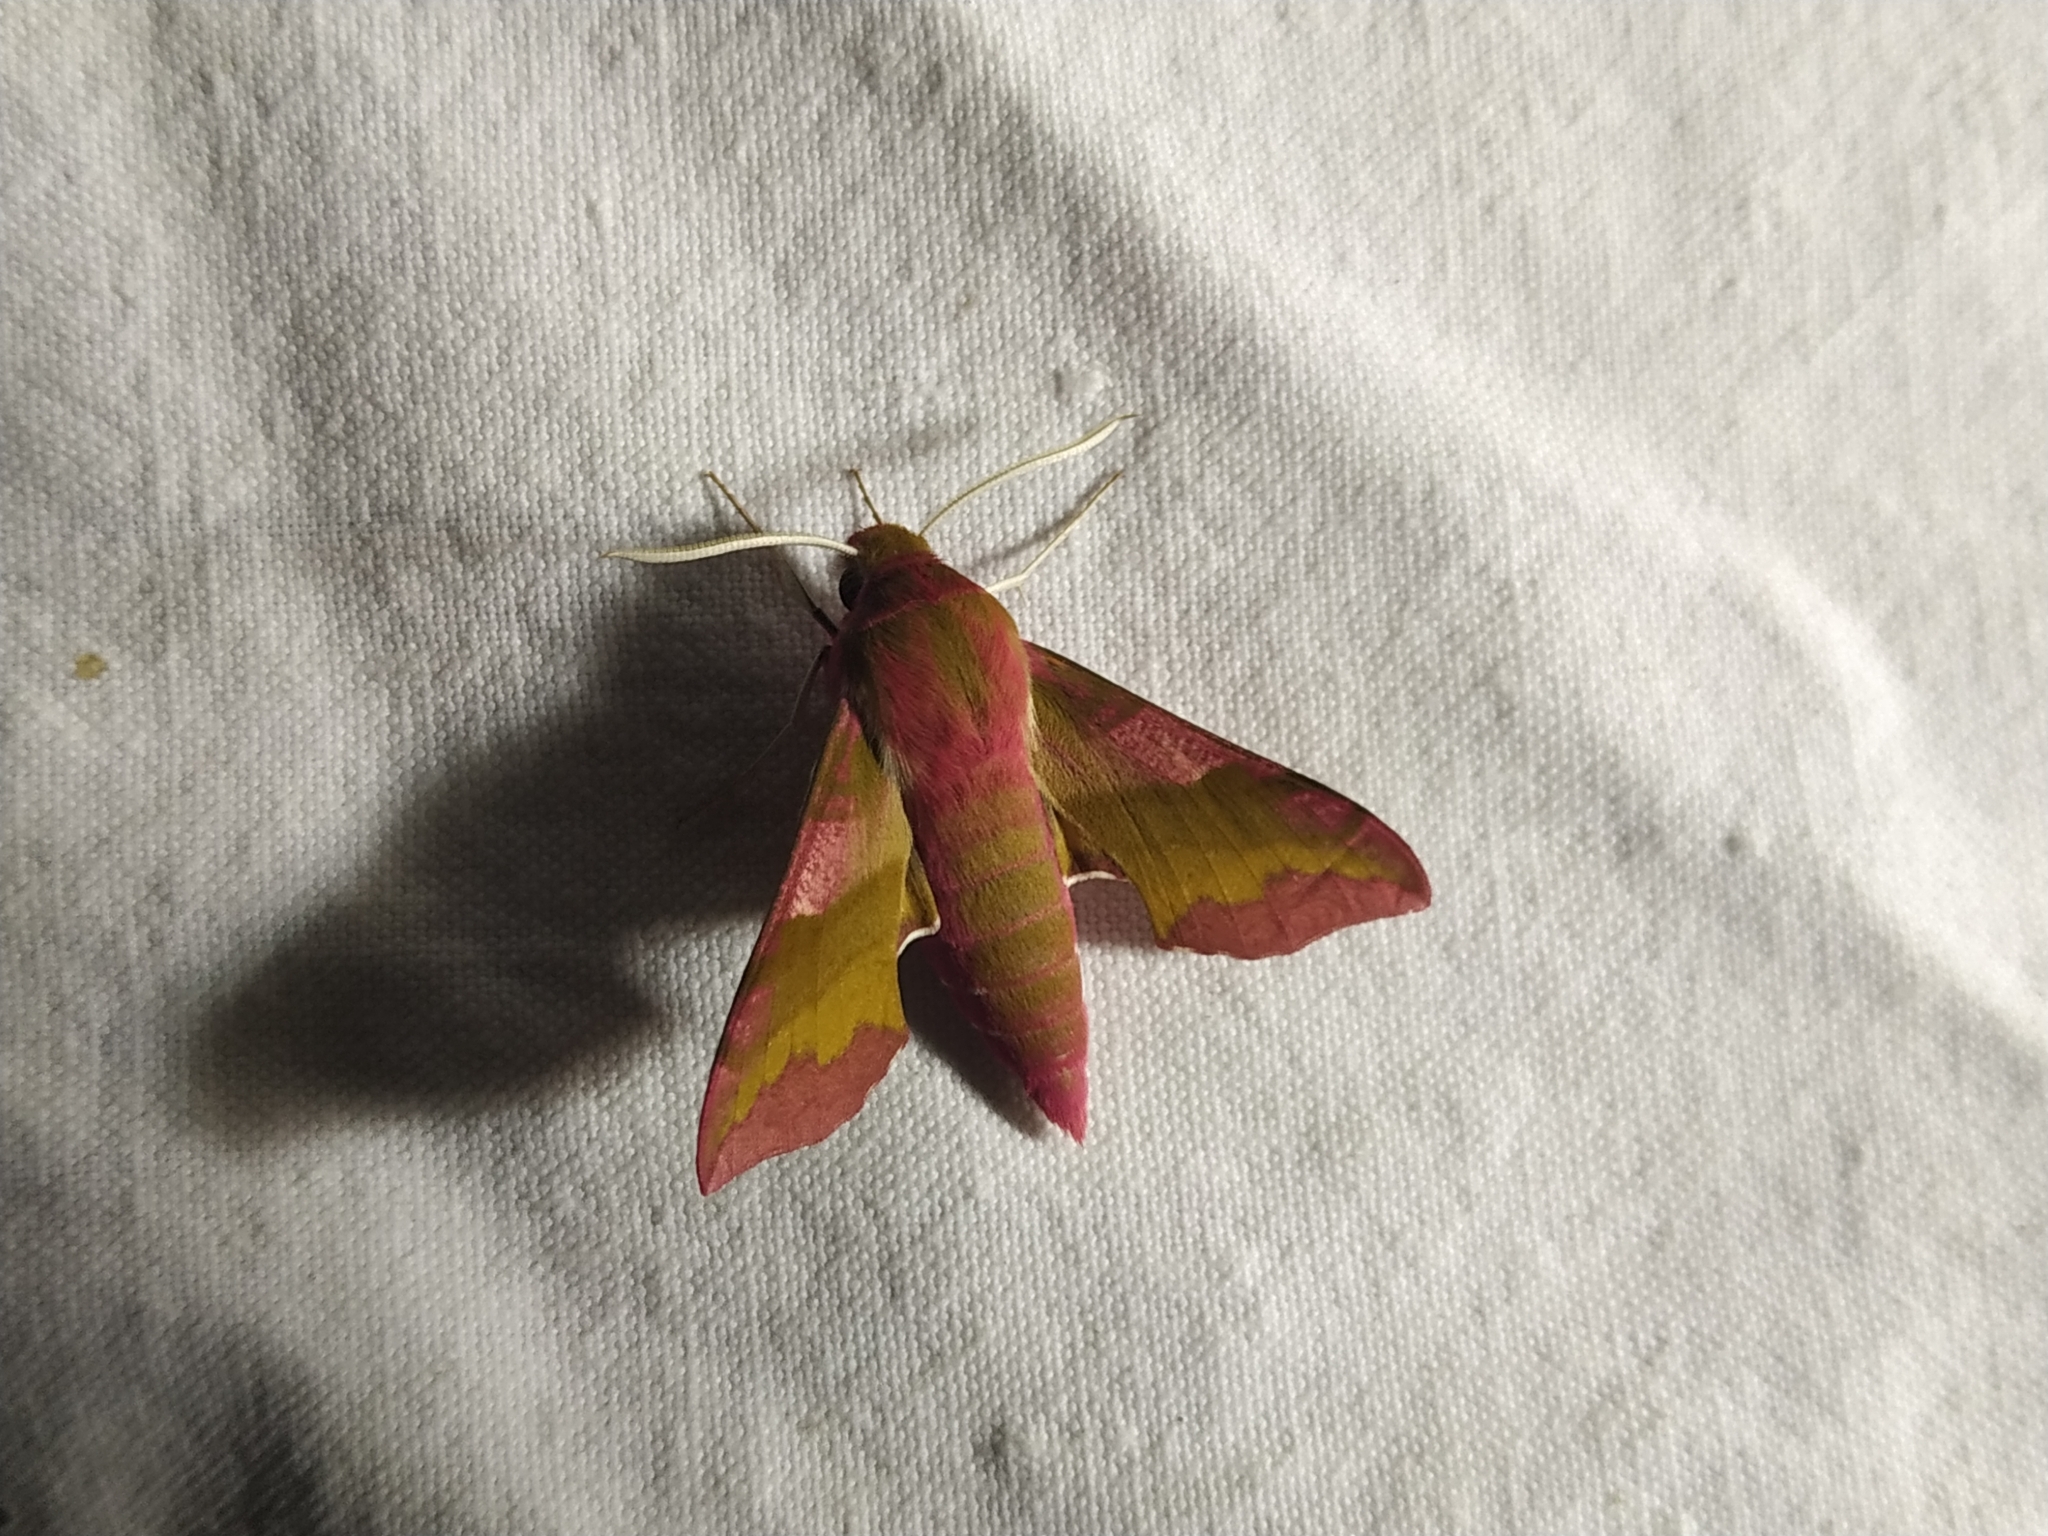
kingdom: Animalia
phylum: Arthropoda
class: Insecta
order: Lepidoptera
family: Sphingidae
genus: Deilephila
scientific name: Deilephila porcellus
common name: Small elephant hawk-moth
